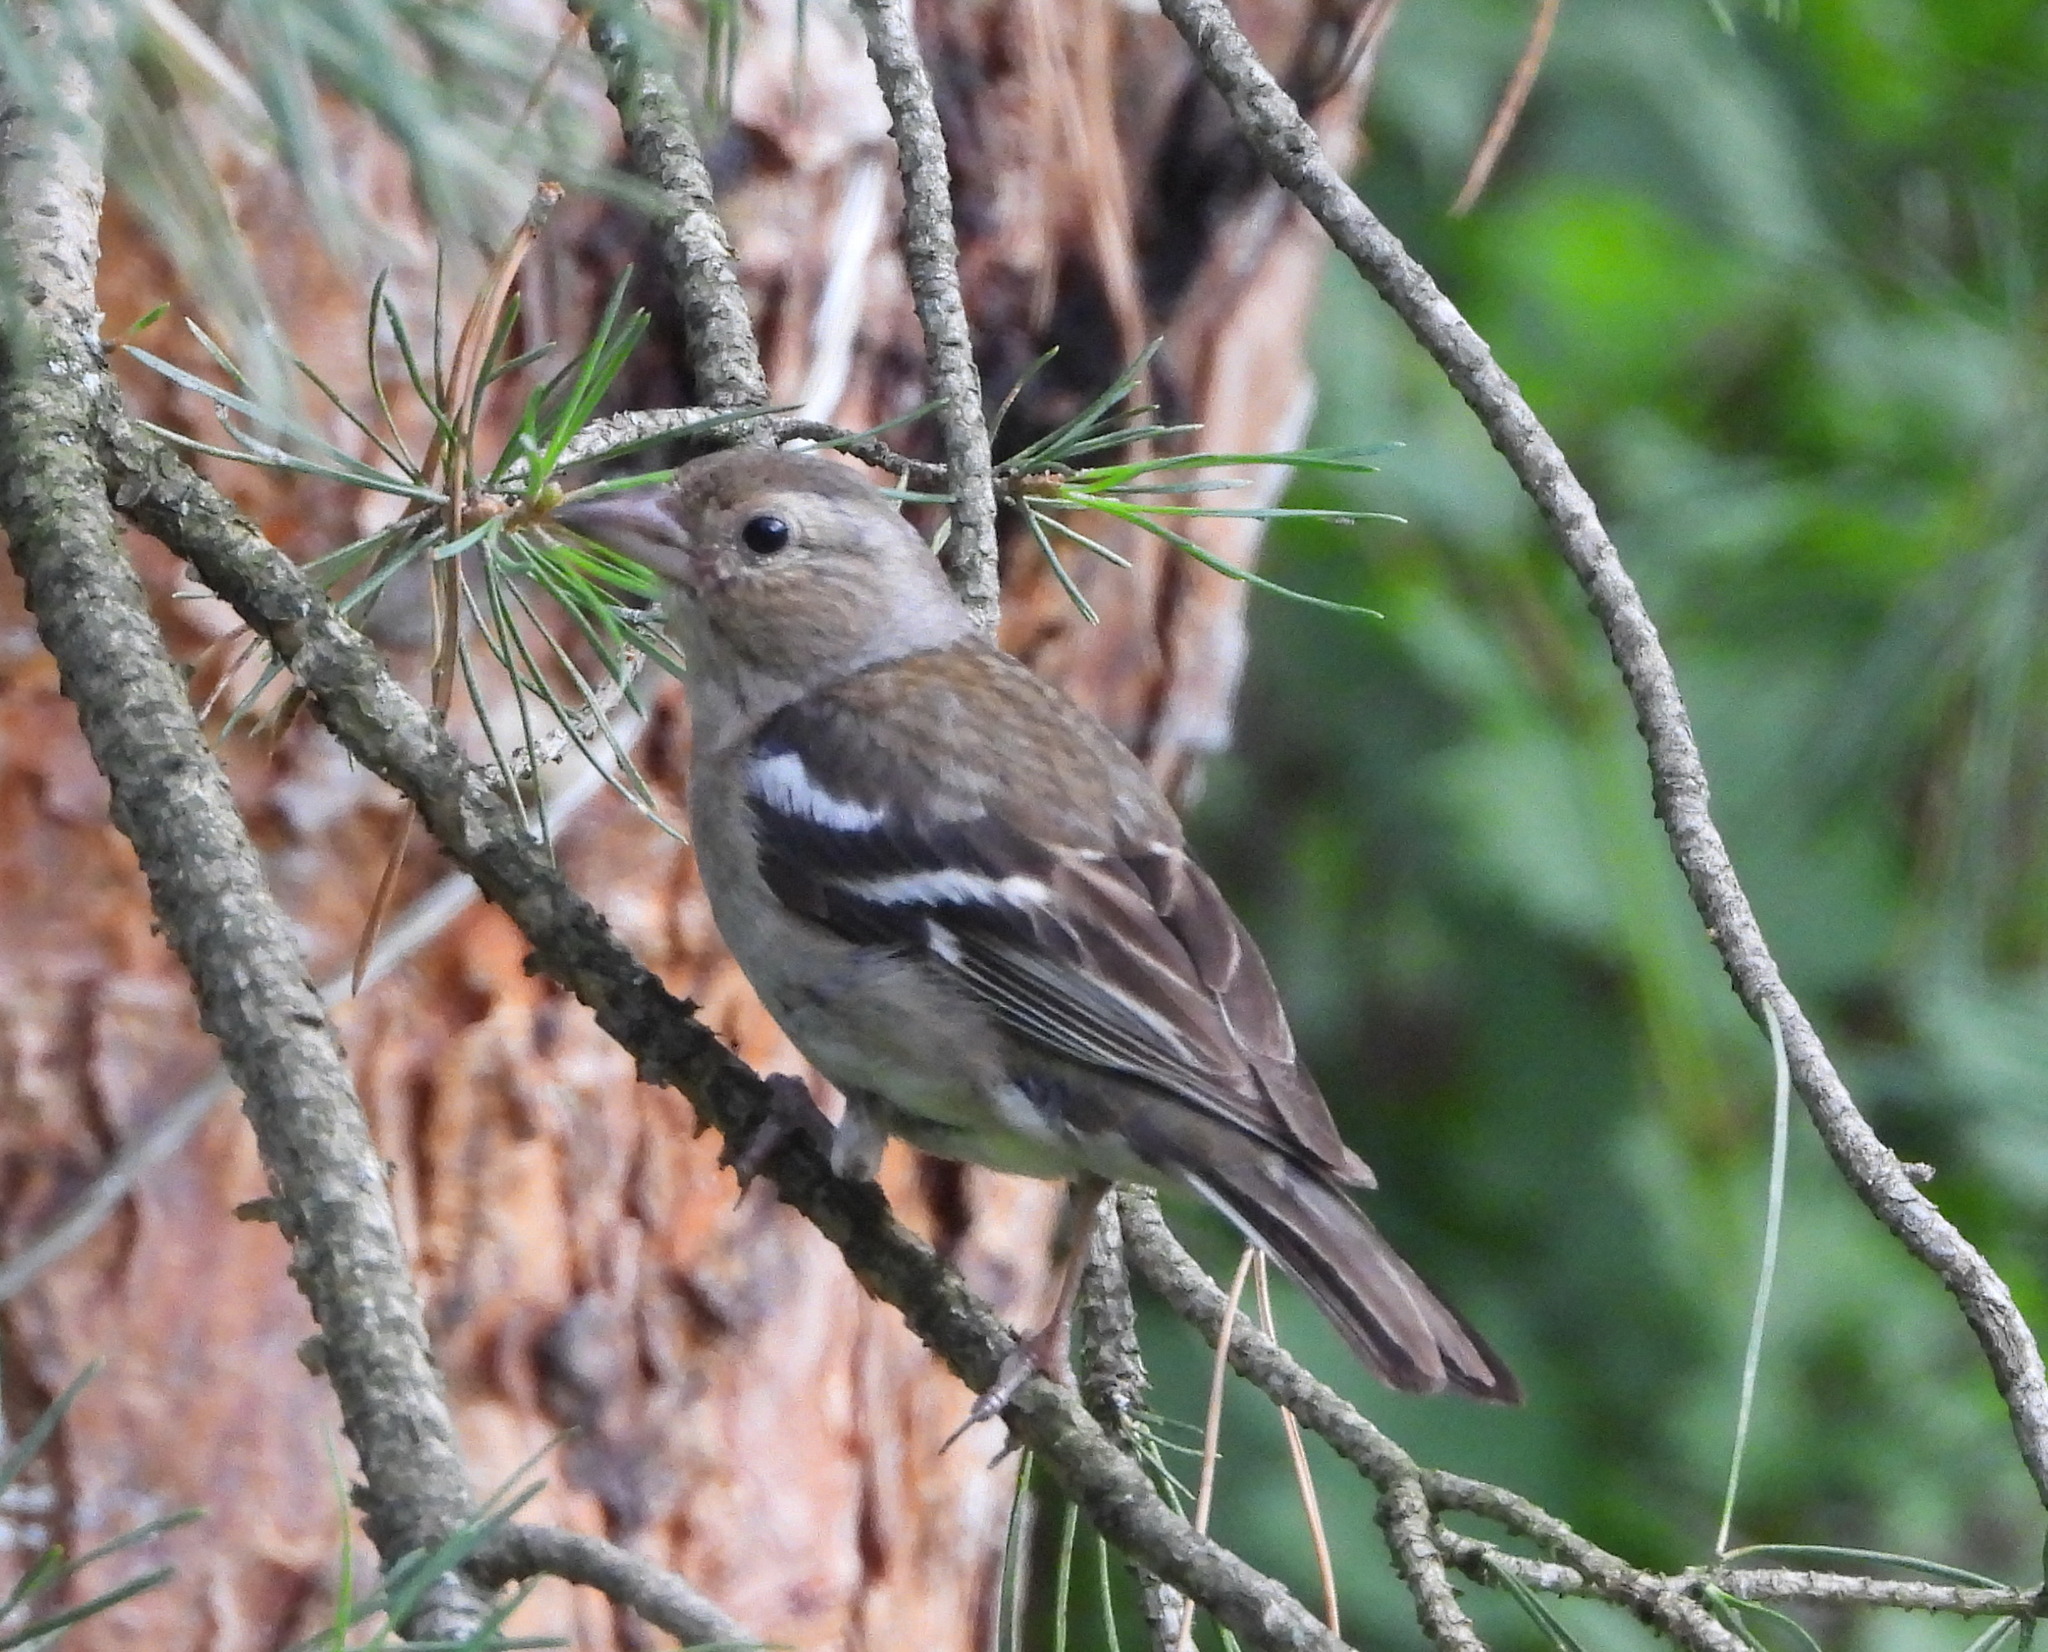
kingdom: Animalia
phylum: Chordata
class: Aves
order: Passeriformes
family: Fringillidae
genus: Fringilla
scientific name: Fringilla coelebs
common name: Common chaffinch
